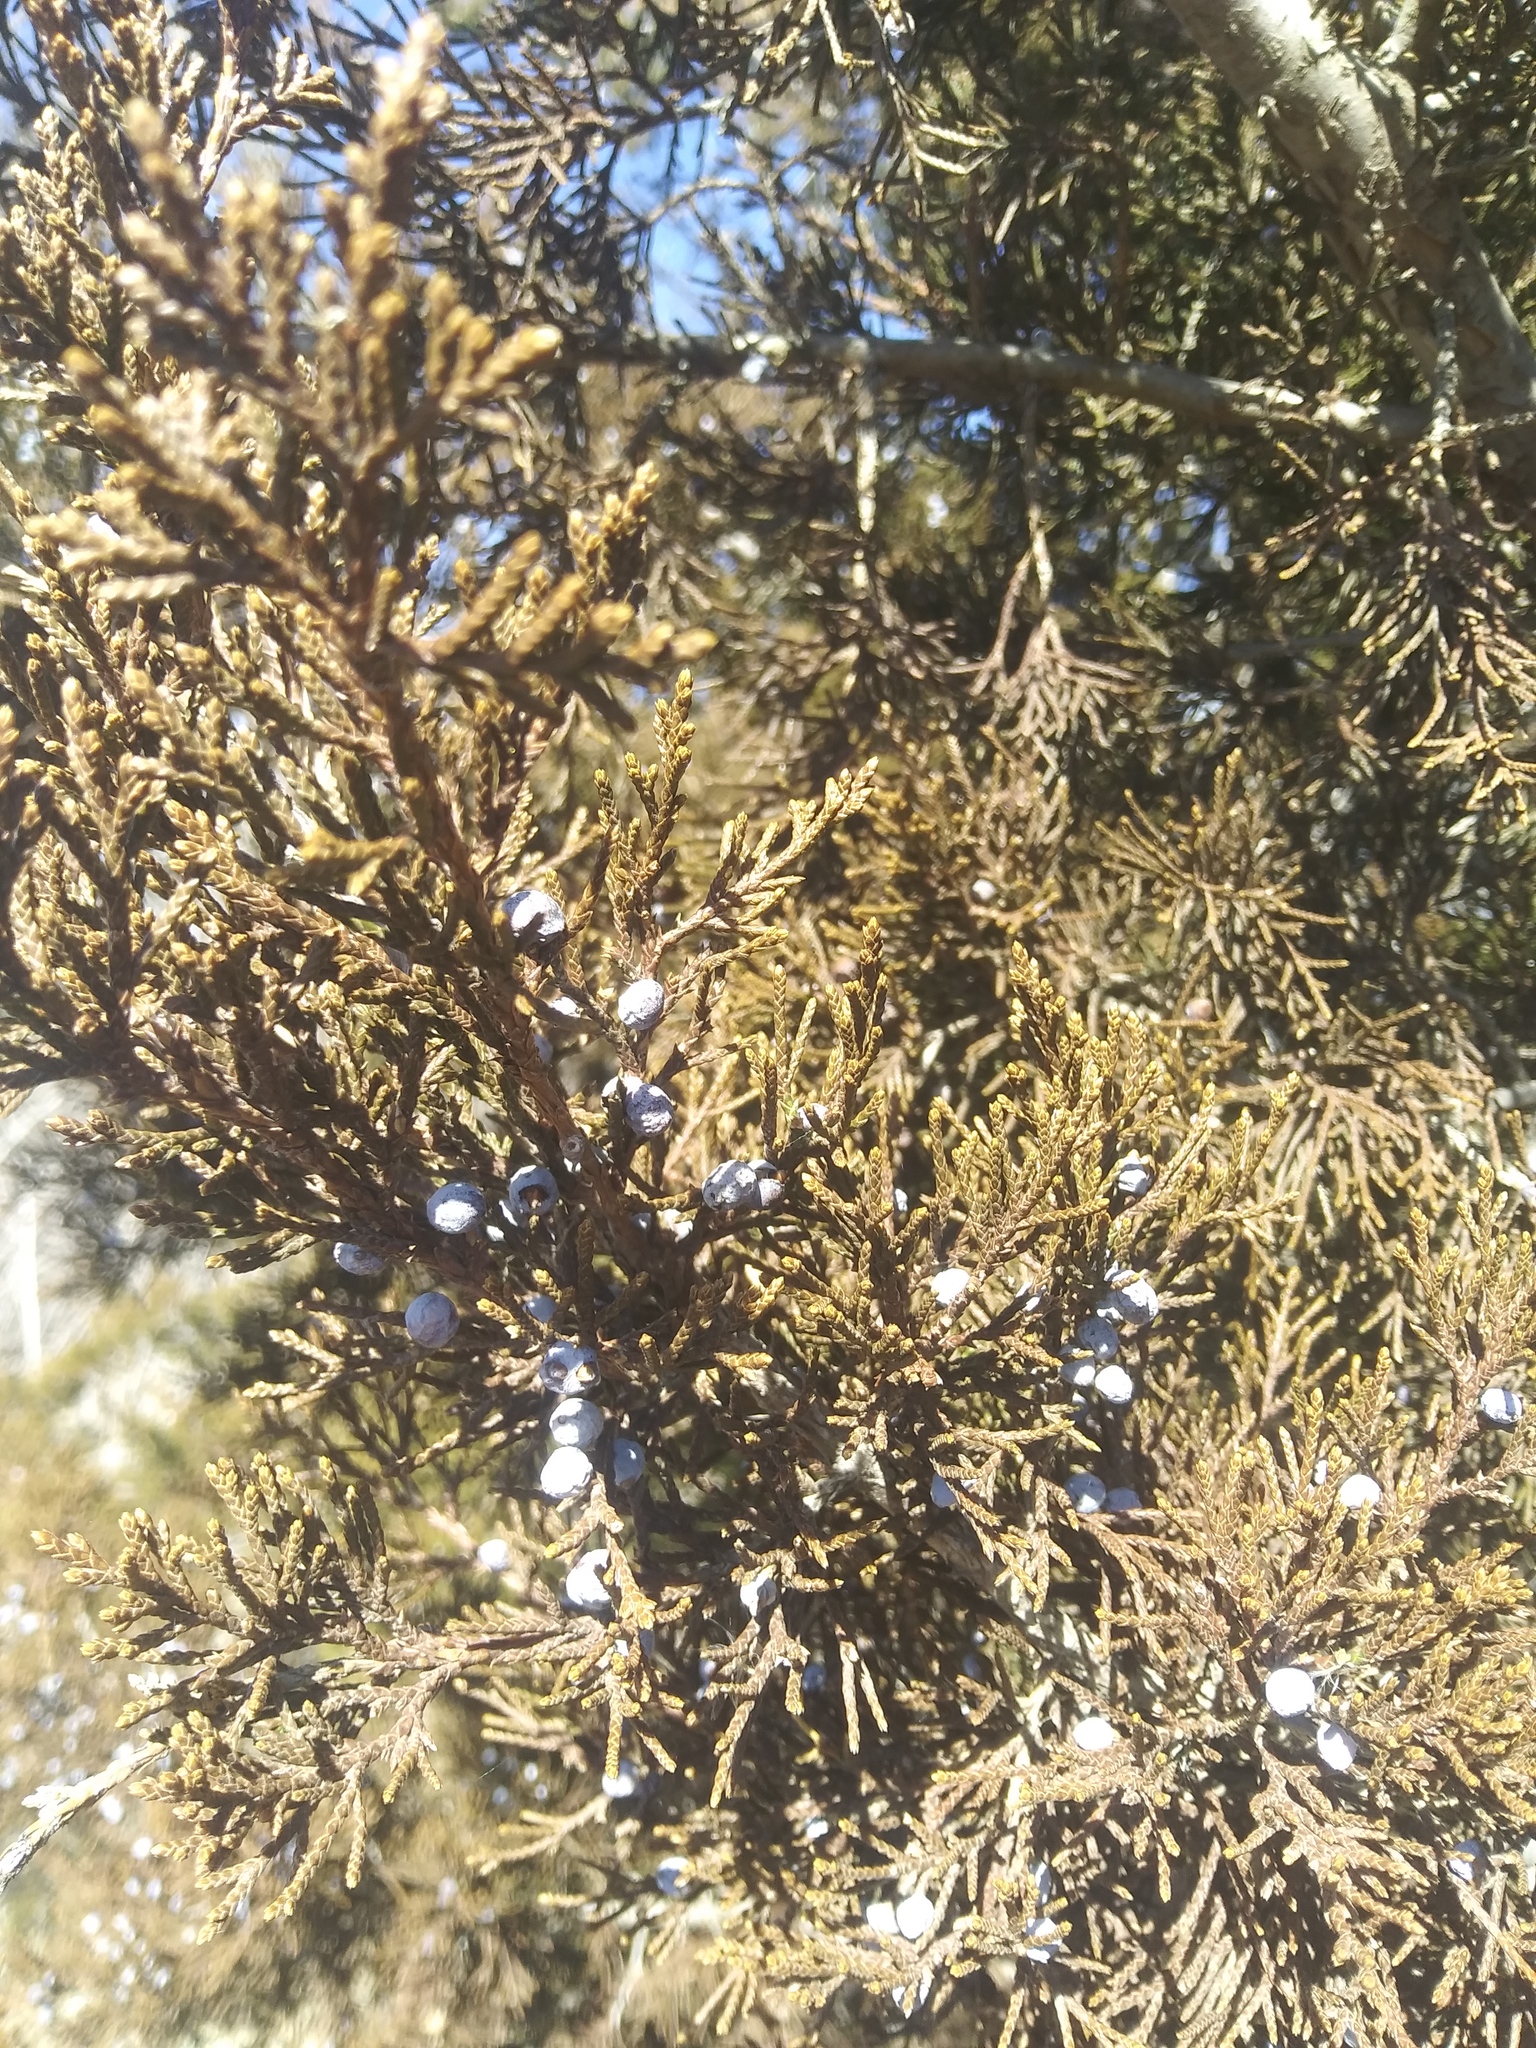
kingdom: Plantae
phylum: Tracheophyta
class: Pinopsida
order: Pinales
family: Cupressaceae
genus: Juniperus
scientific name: Juniperus virginiana
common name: Red juniper
